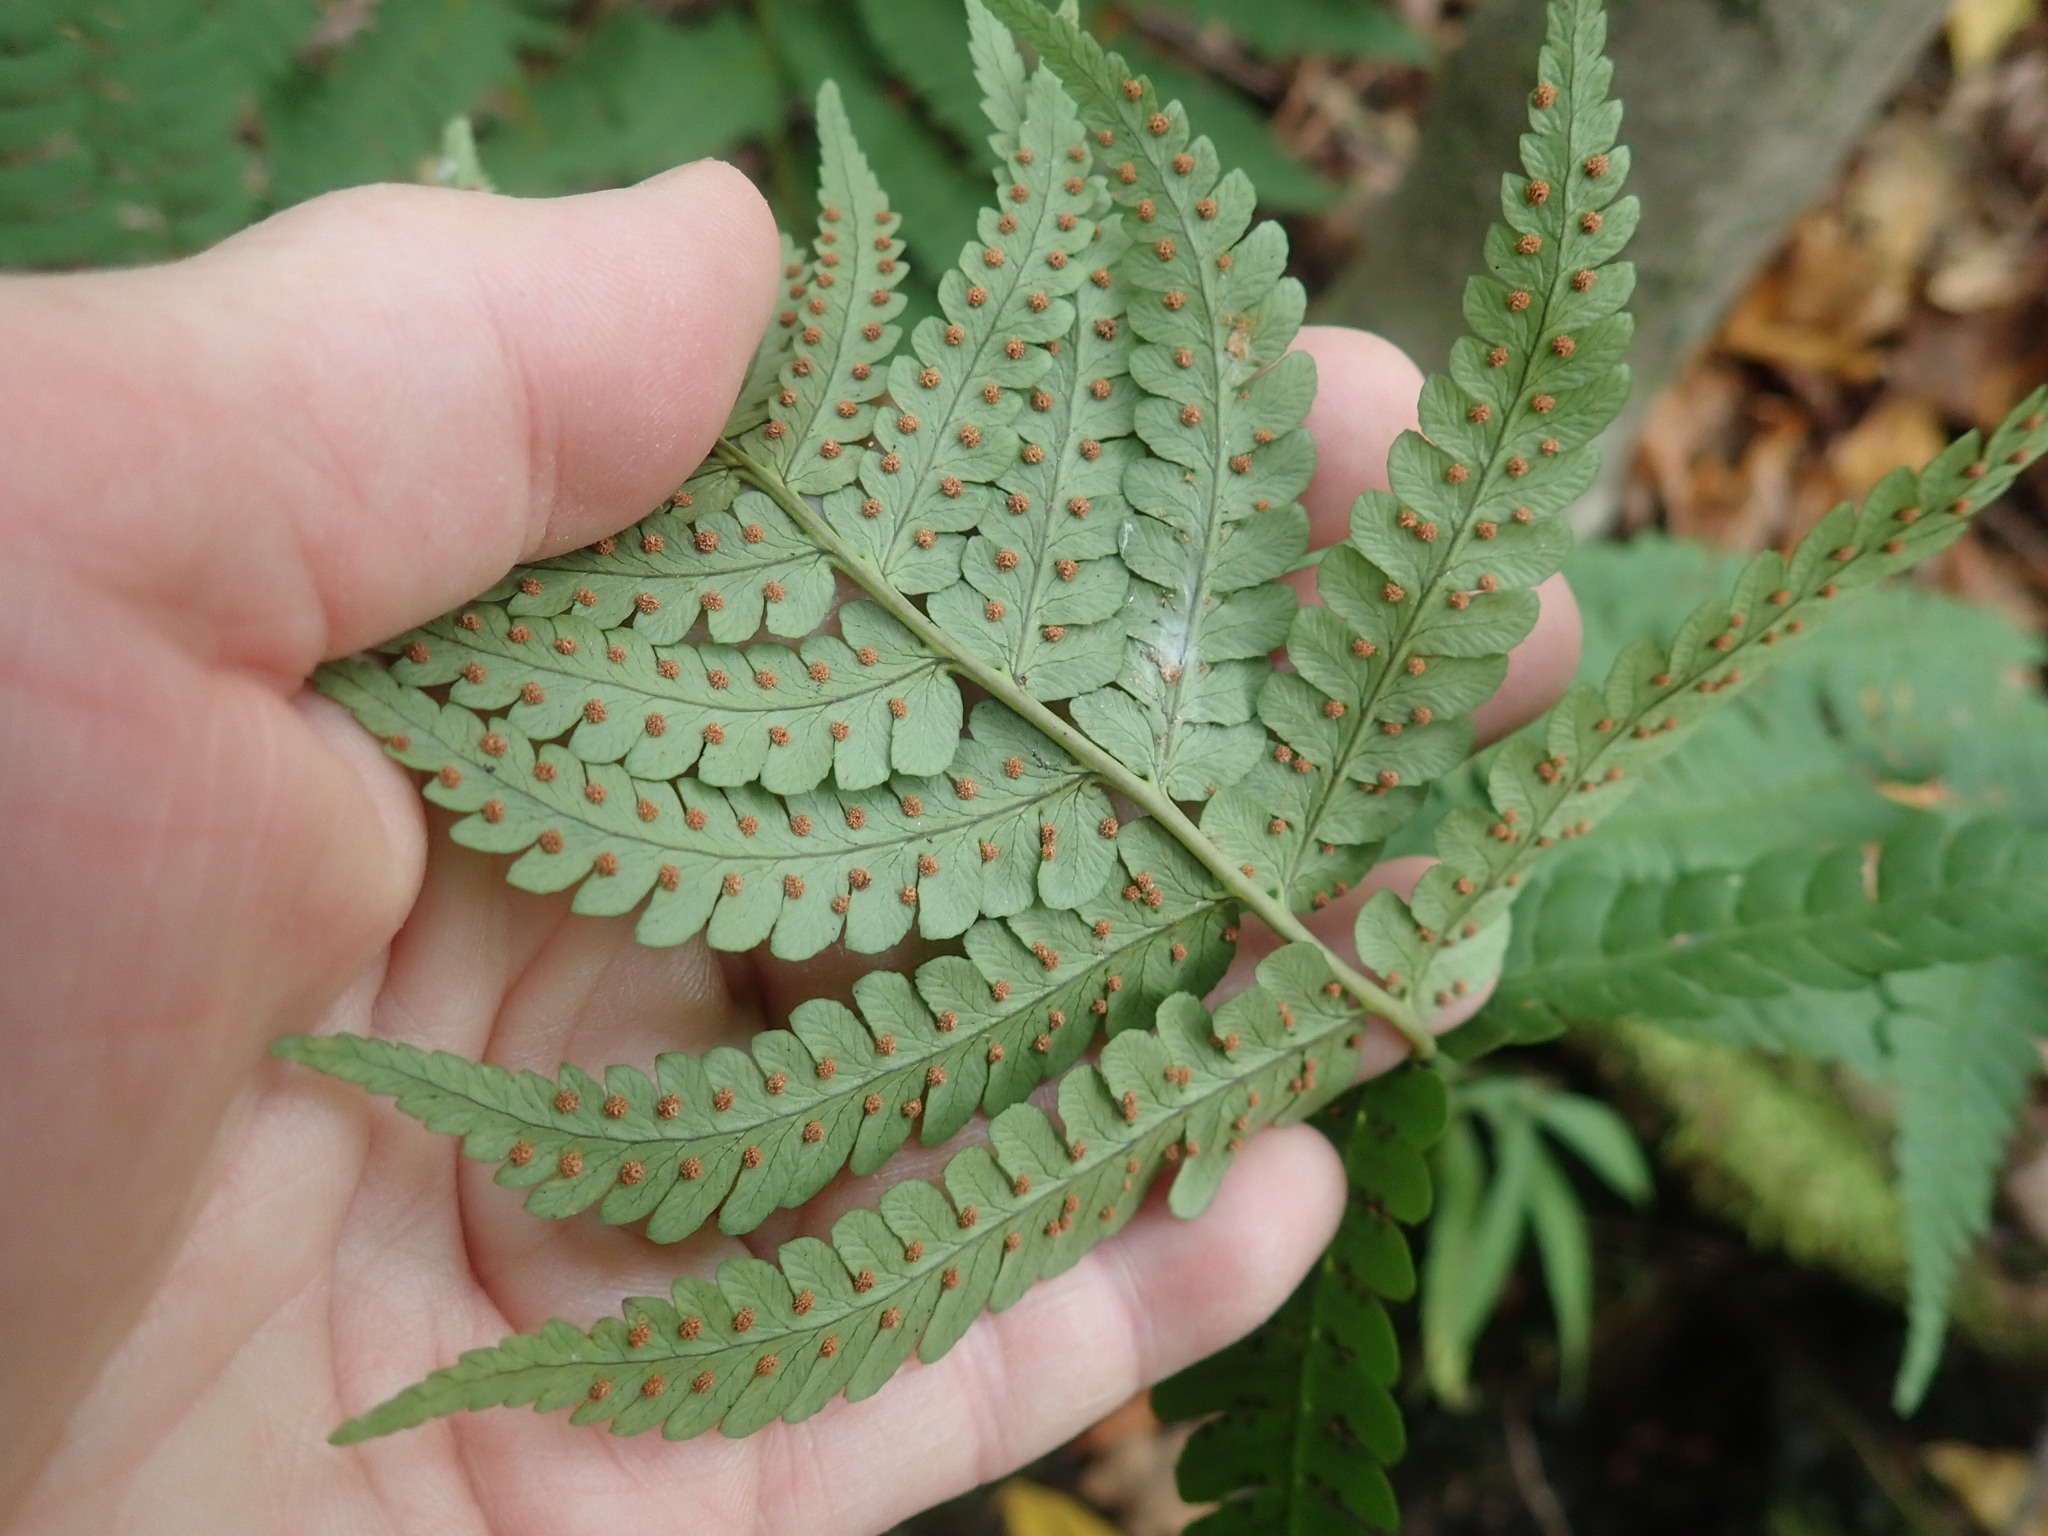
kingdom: Plantae
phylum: Tracheophyta
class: Polypodiopsida
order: Polypodiales
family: Dryopteridaceae
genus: Dryopteris
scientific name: Dryopteris marginalis
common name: Marginal wood fern
